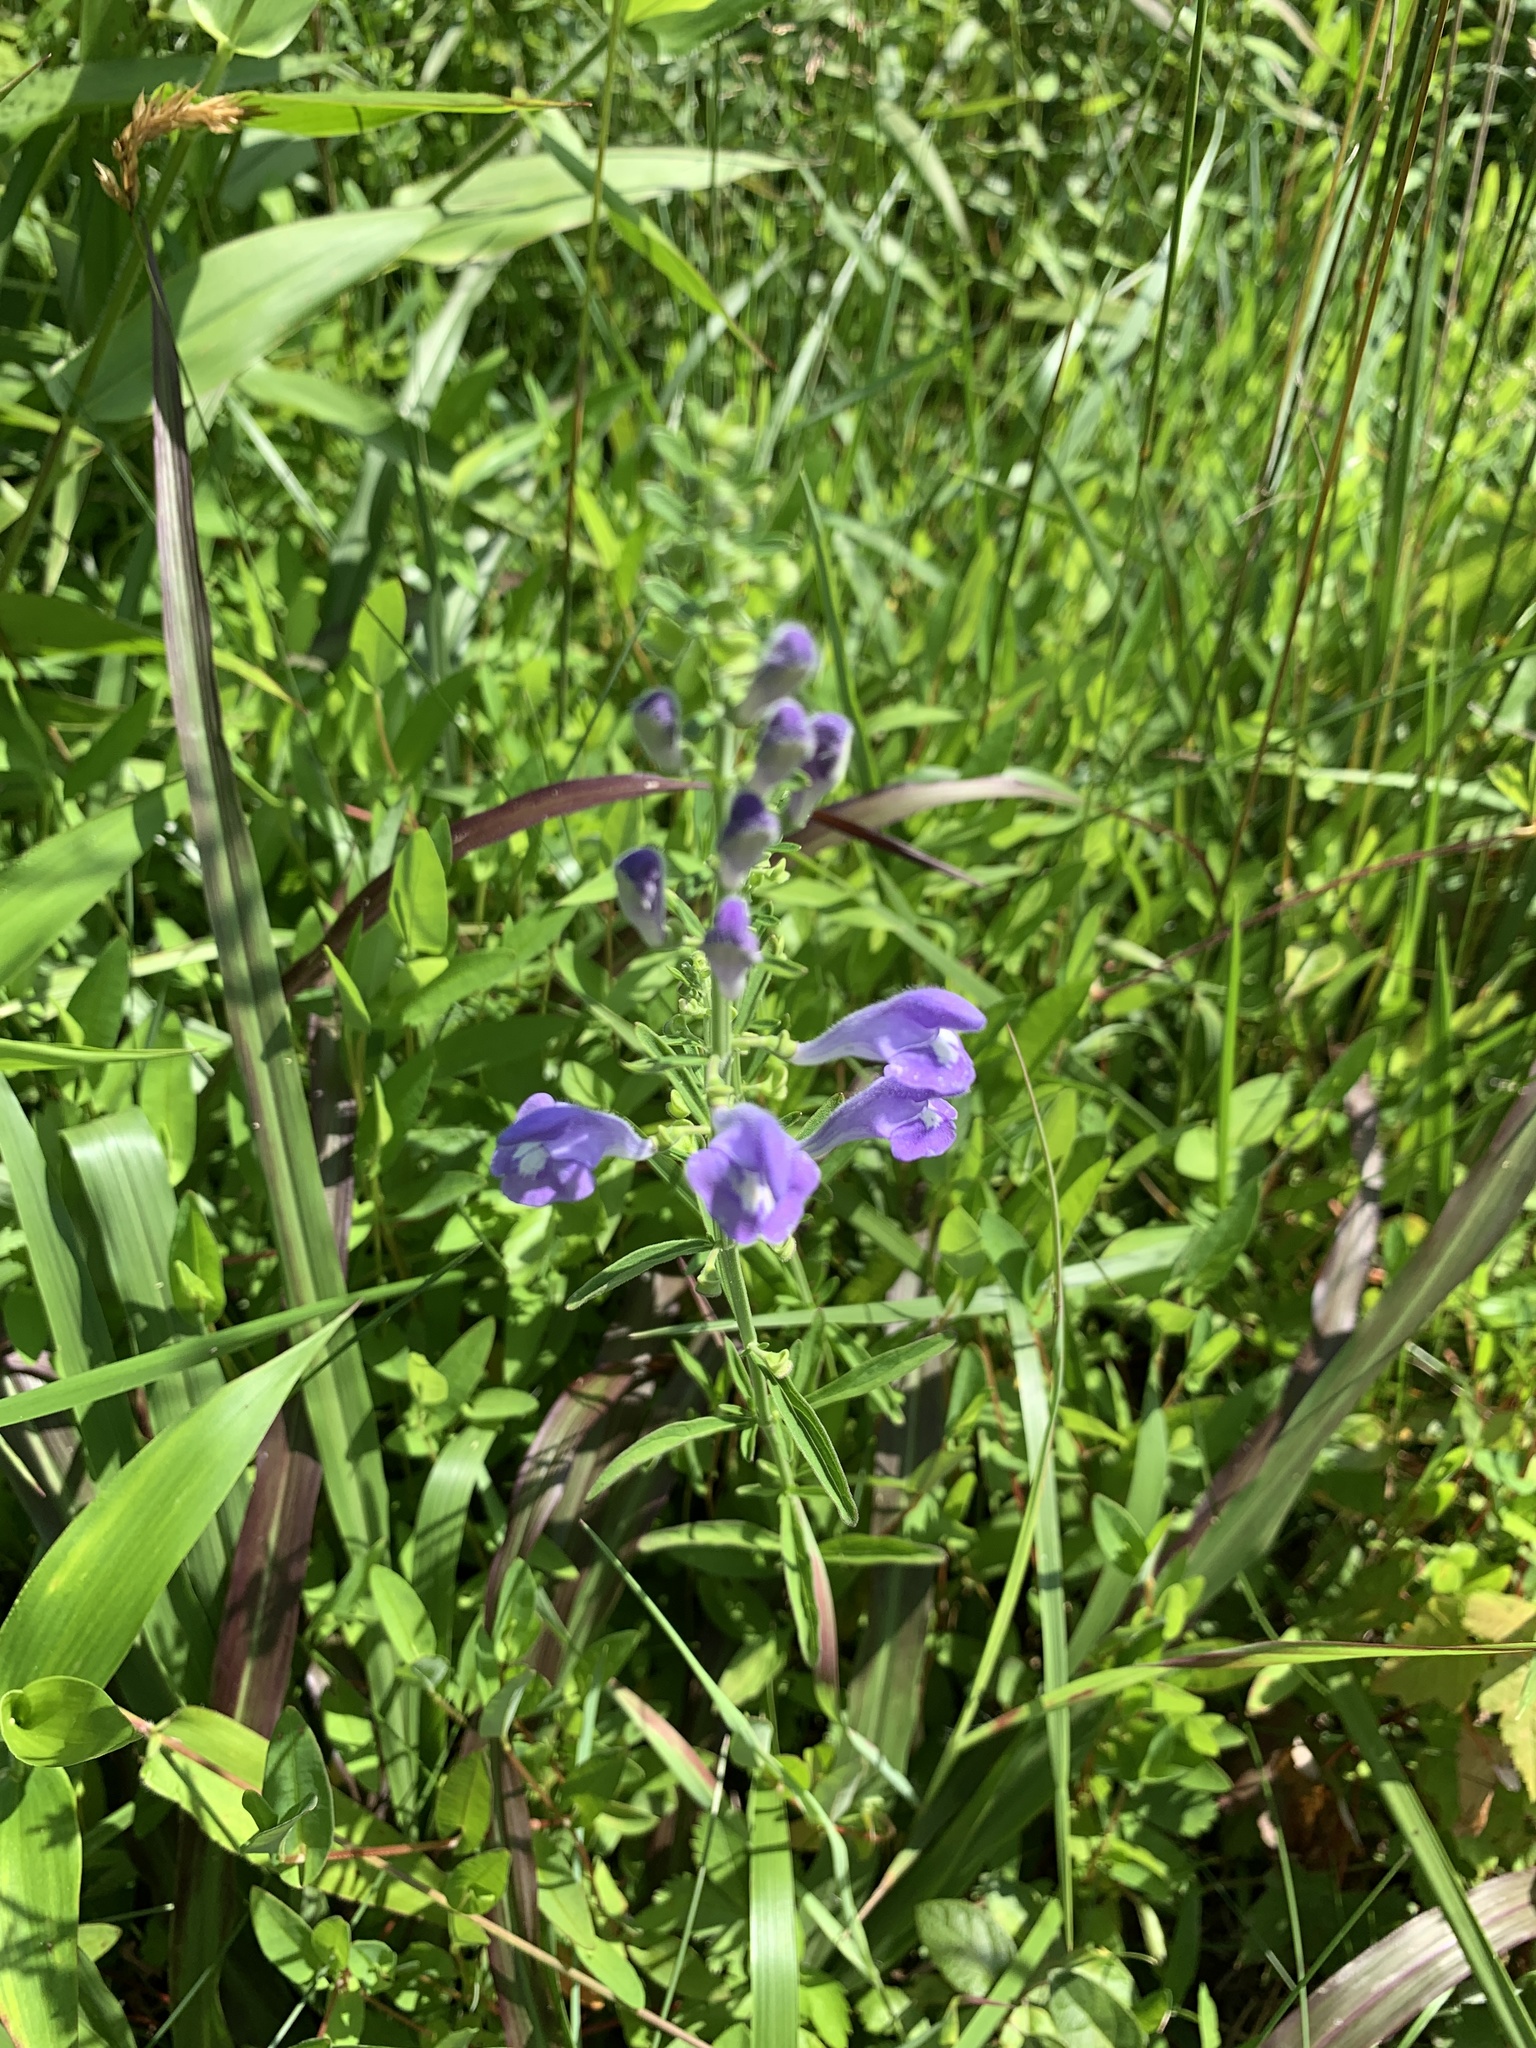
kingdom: Plantae
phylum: Tracheophyta
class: Magnoliopsida
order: Lamiales
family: Lamiaceae
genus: Scutellaria
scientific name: Scutellaria integrifolia
